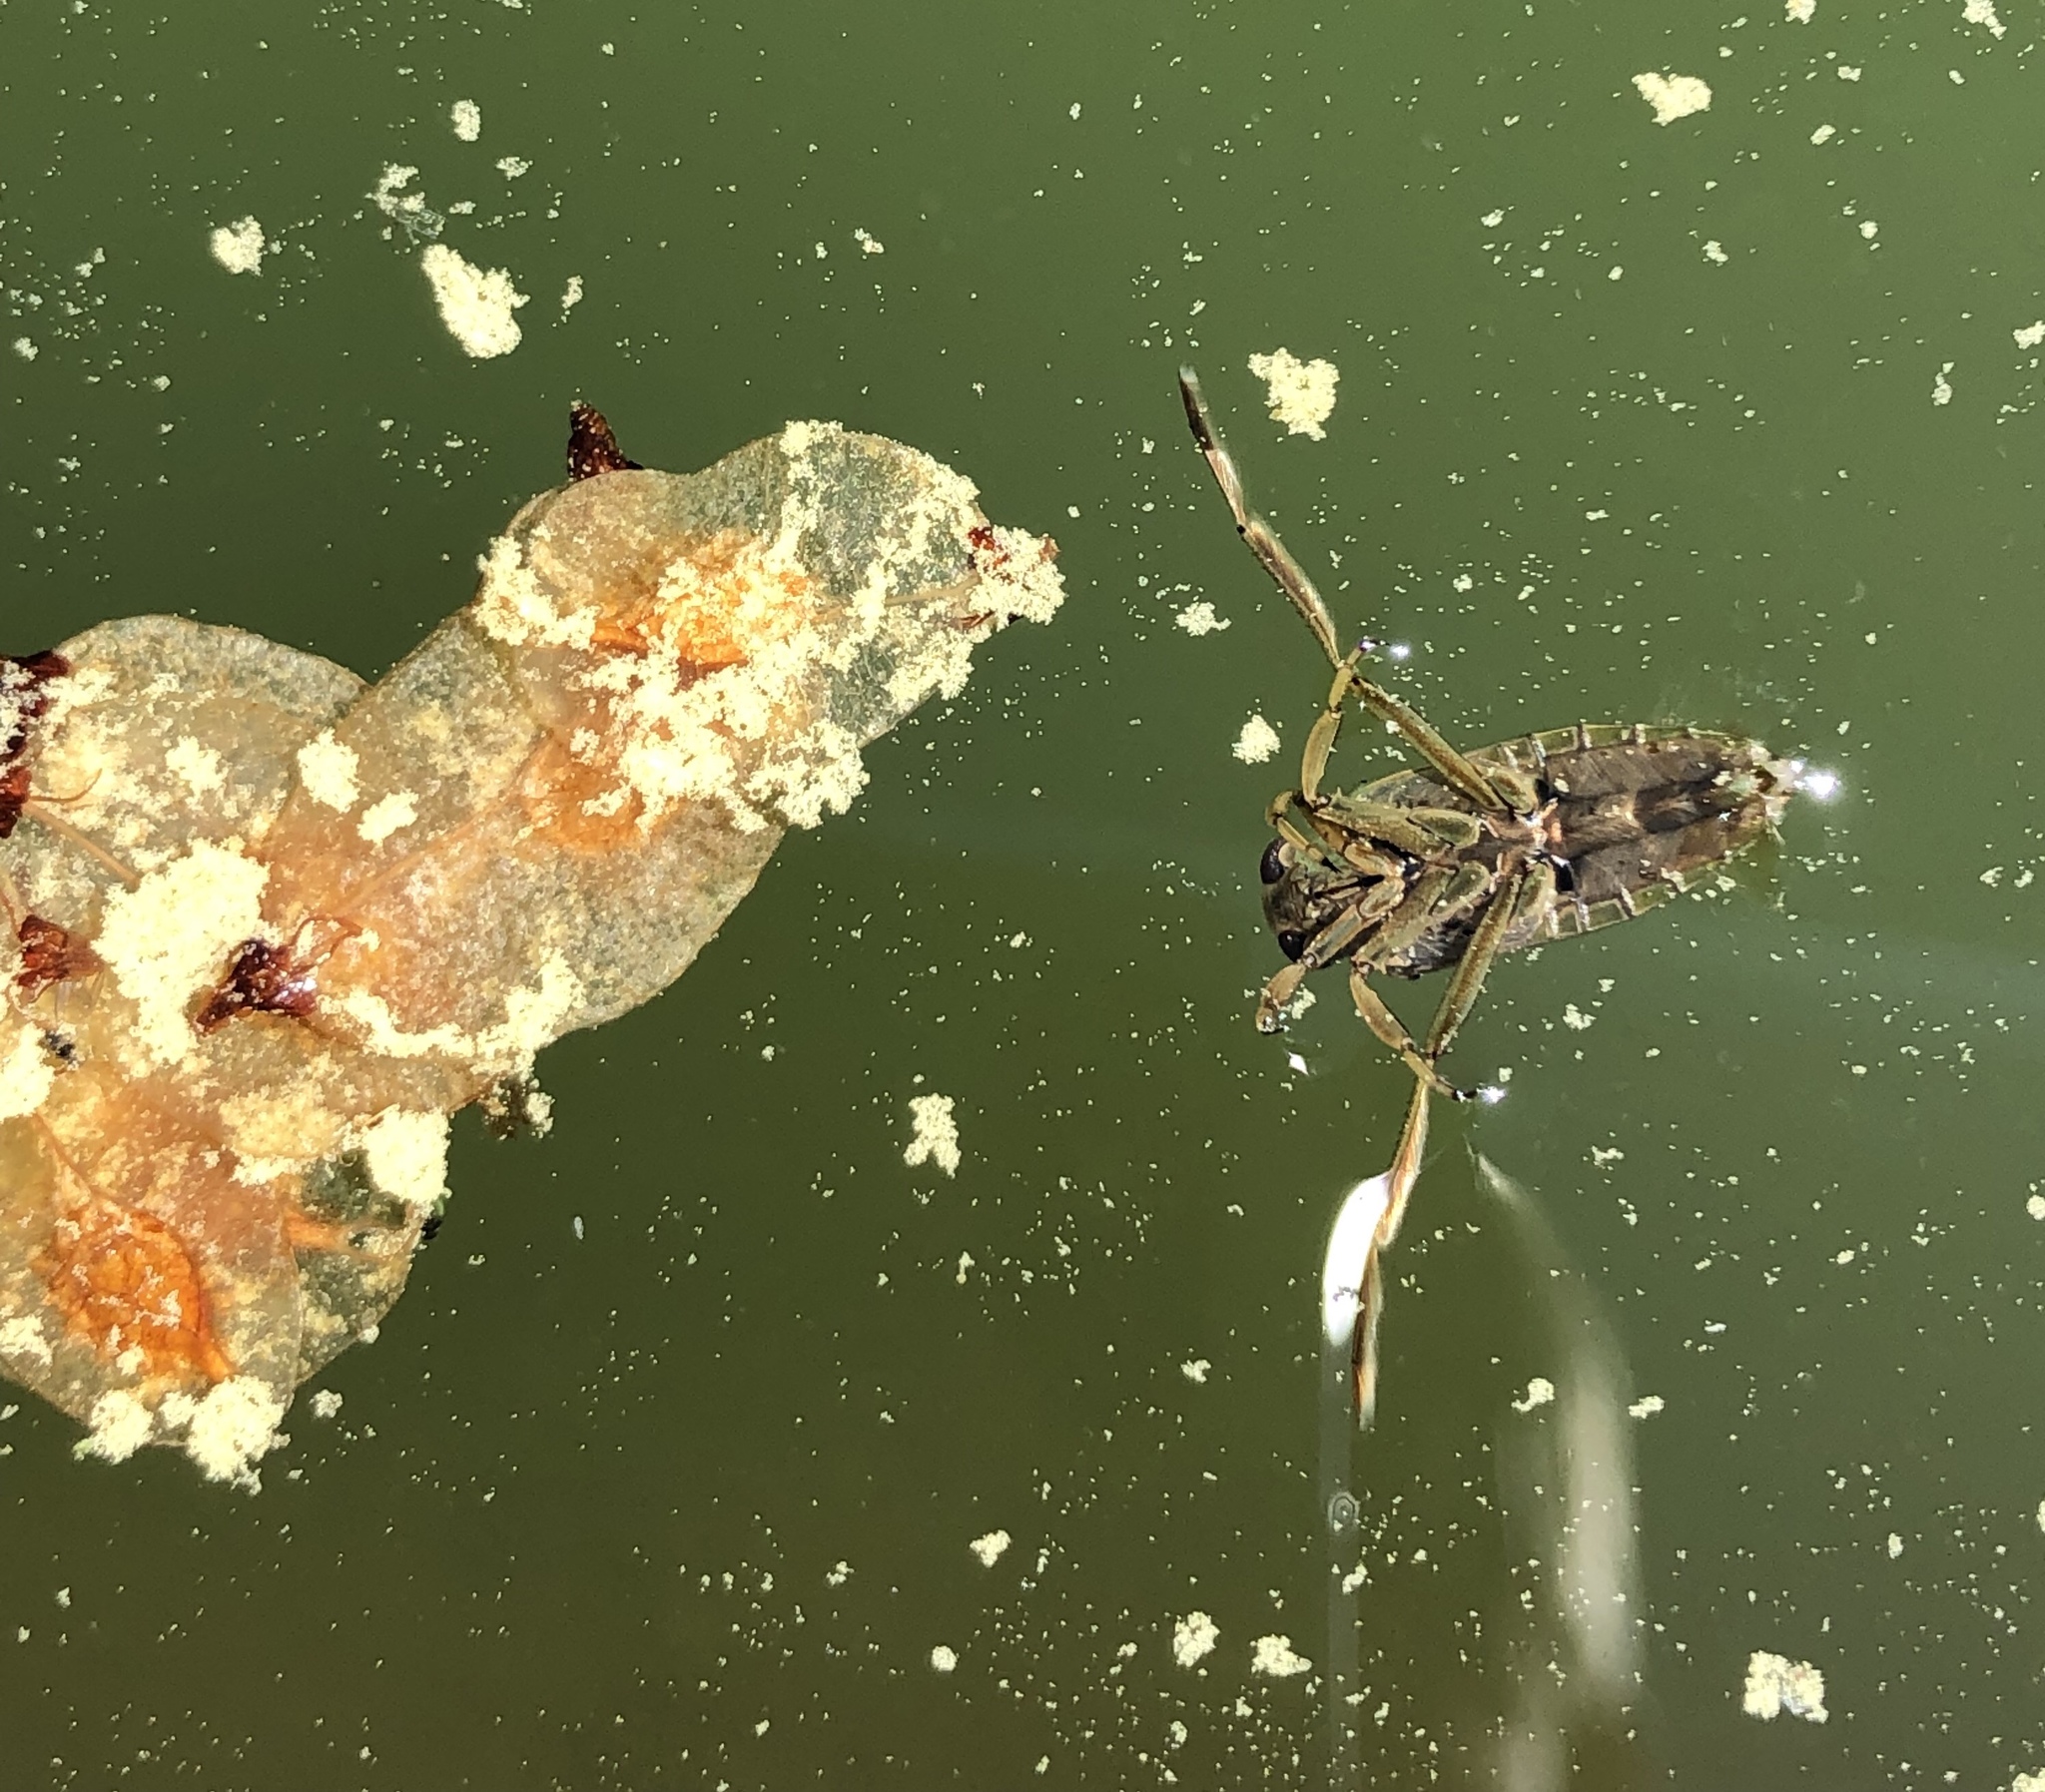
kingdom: Animalia
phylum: Arthropoda
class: Insecta
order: Hemiptera
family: Notonectidae
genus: Notonecta
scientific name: Notonecta
